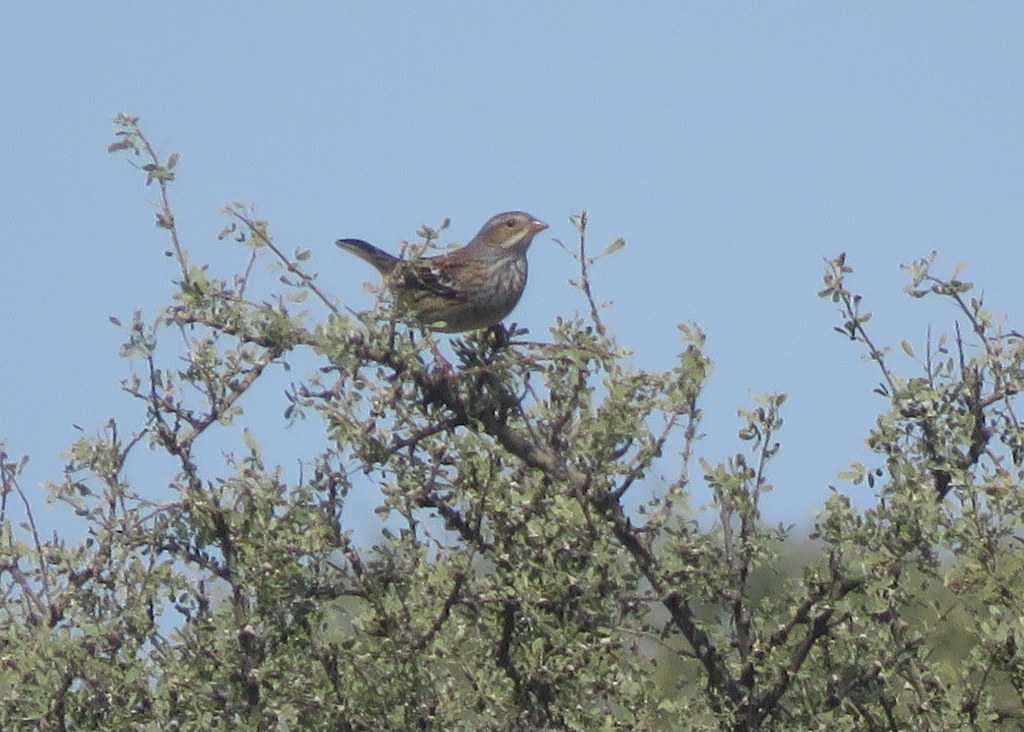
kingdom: Animalia
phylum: Chordata
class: Aves
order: Passeriformes
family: Thraupidae
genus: Rhopospina
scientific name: Rhopospina fruticeti
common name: Mourning sierra finch
